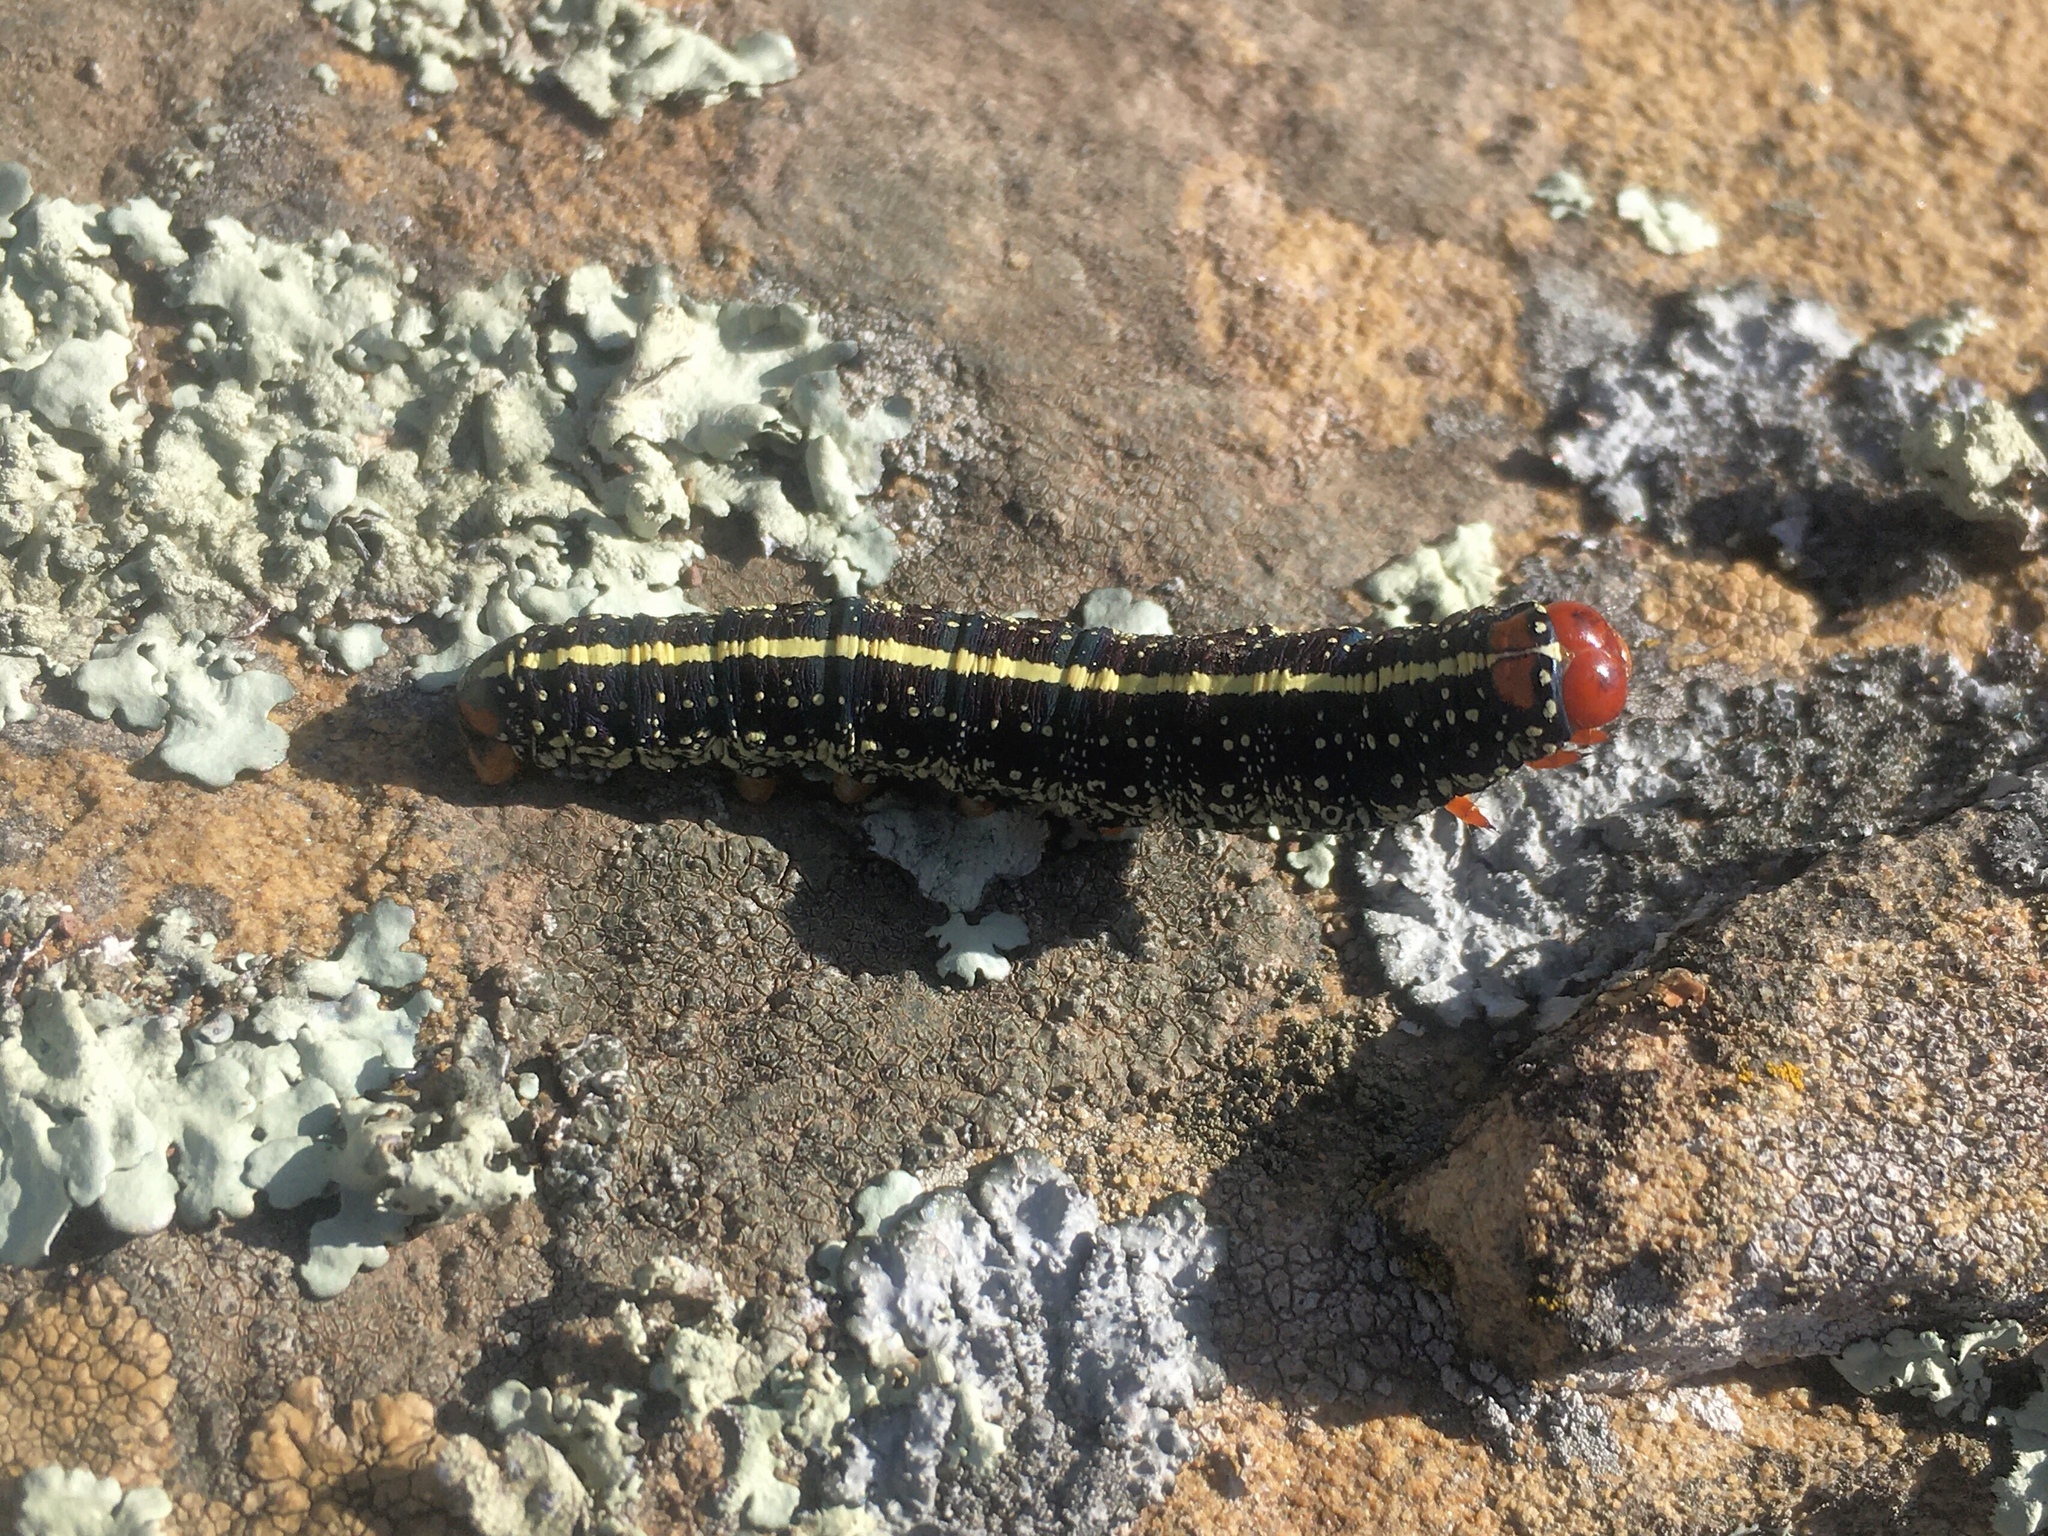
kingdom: Animalia
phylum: Arthropoda
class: Insecta
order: Lepidoptera
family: Noctuidae
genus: Chlanidophora
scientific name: Chlanidophora
